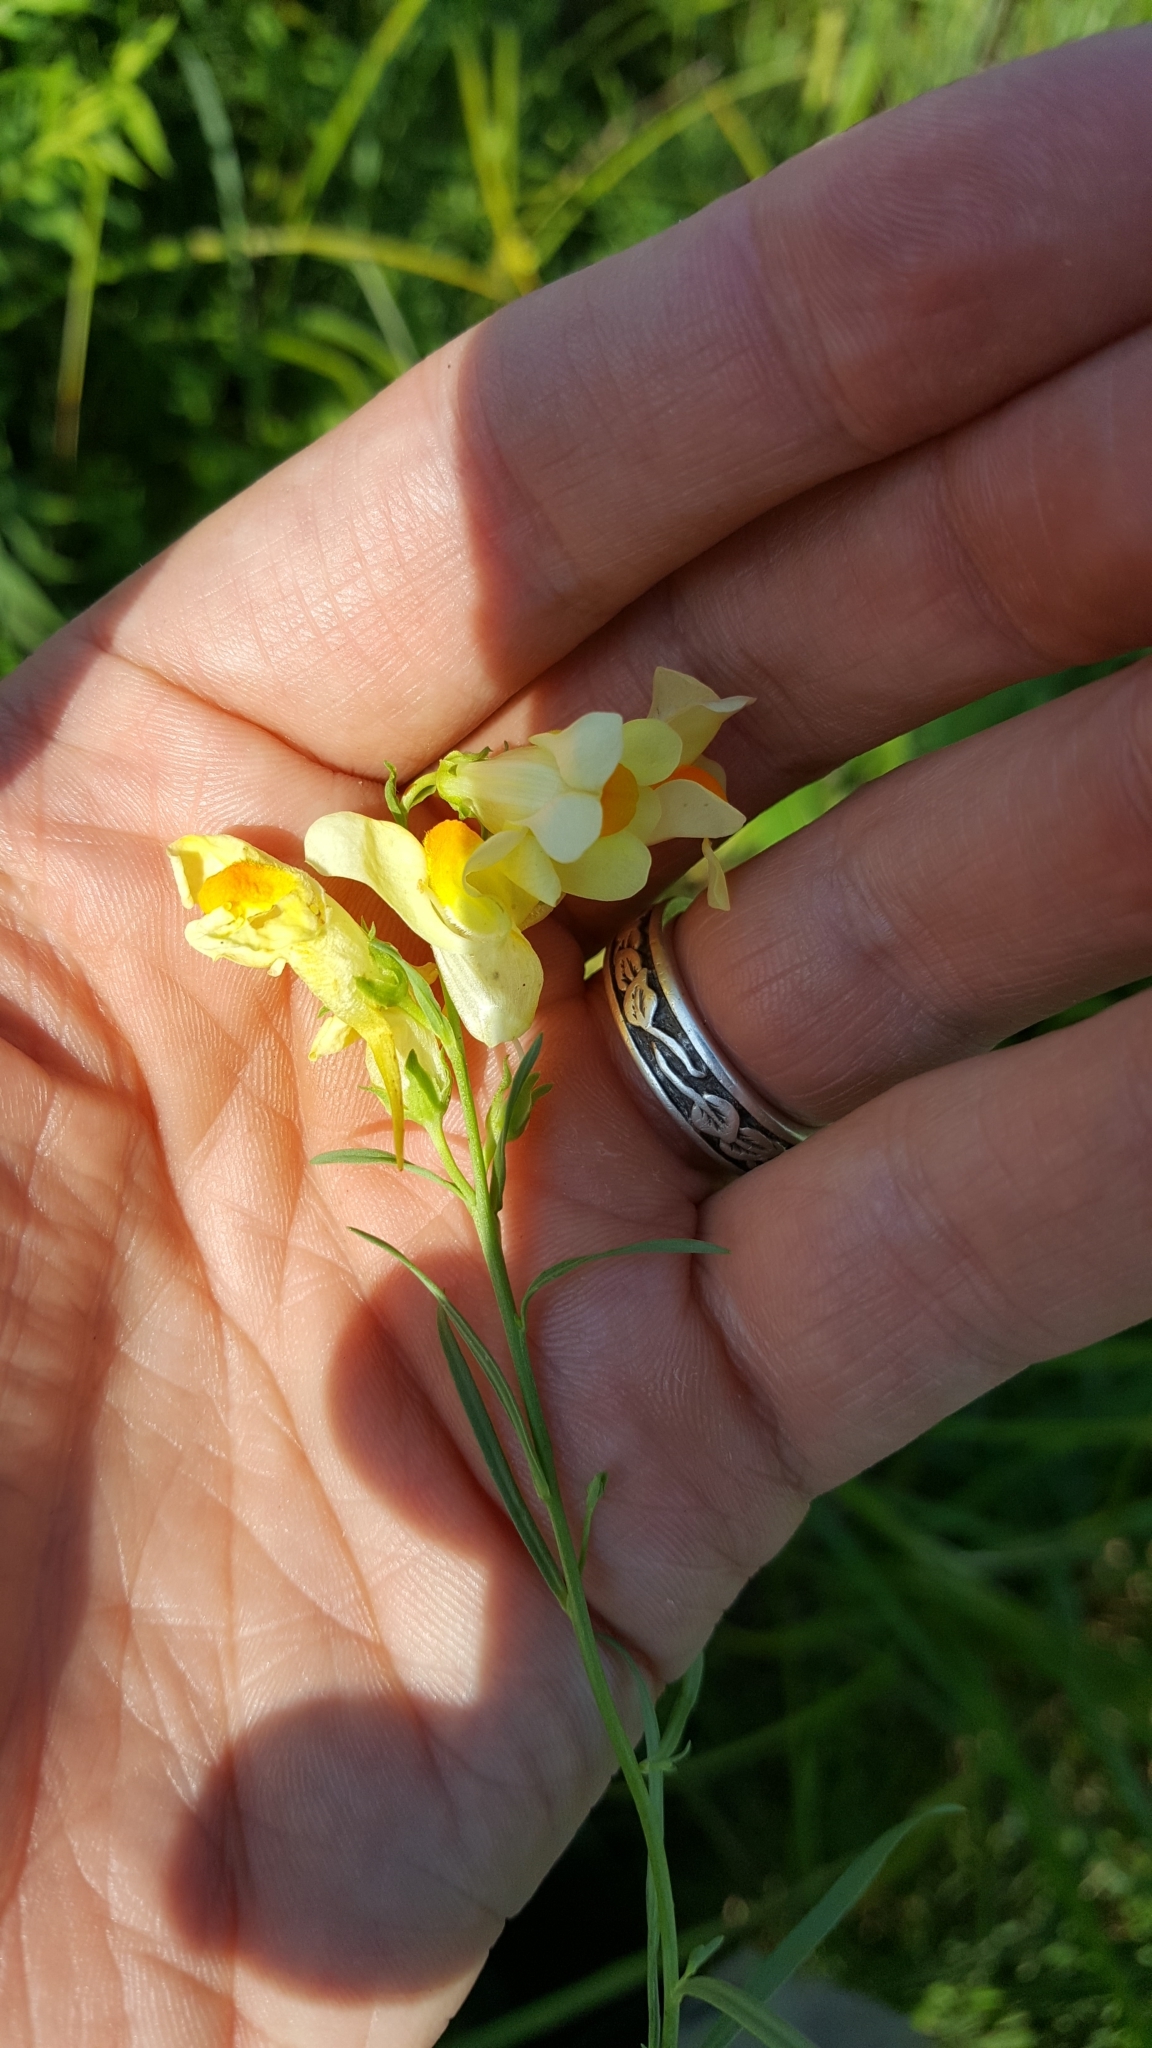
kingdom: Plantae
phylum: Tracheophyta
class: Magnoliopsida
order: Lamiales
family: Plantaginaceae
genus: Linaria
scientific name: Linaria vulgaris
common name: Butter and eggs
